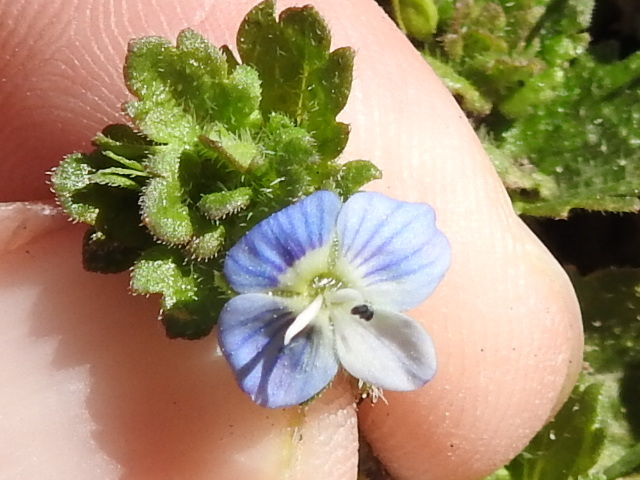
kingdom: Plantae
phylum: Tracheophyta
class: Magnoliopsida
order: Lamiales
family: Plantaginaceae
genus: Veronica
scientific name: Veronica persica
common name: Common field-speedwell
